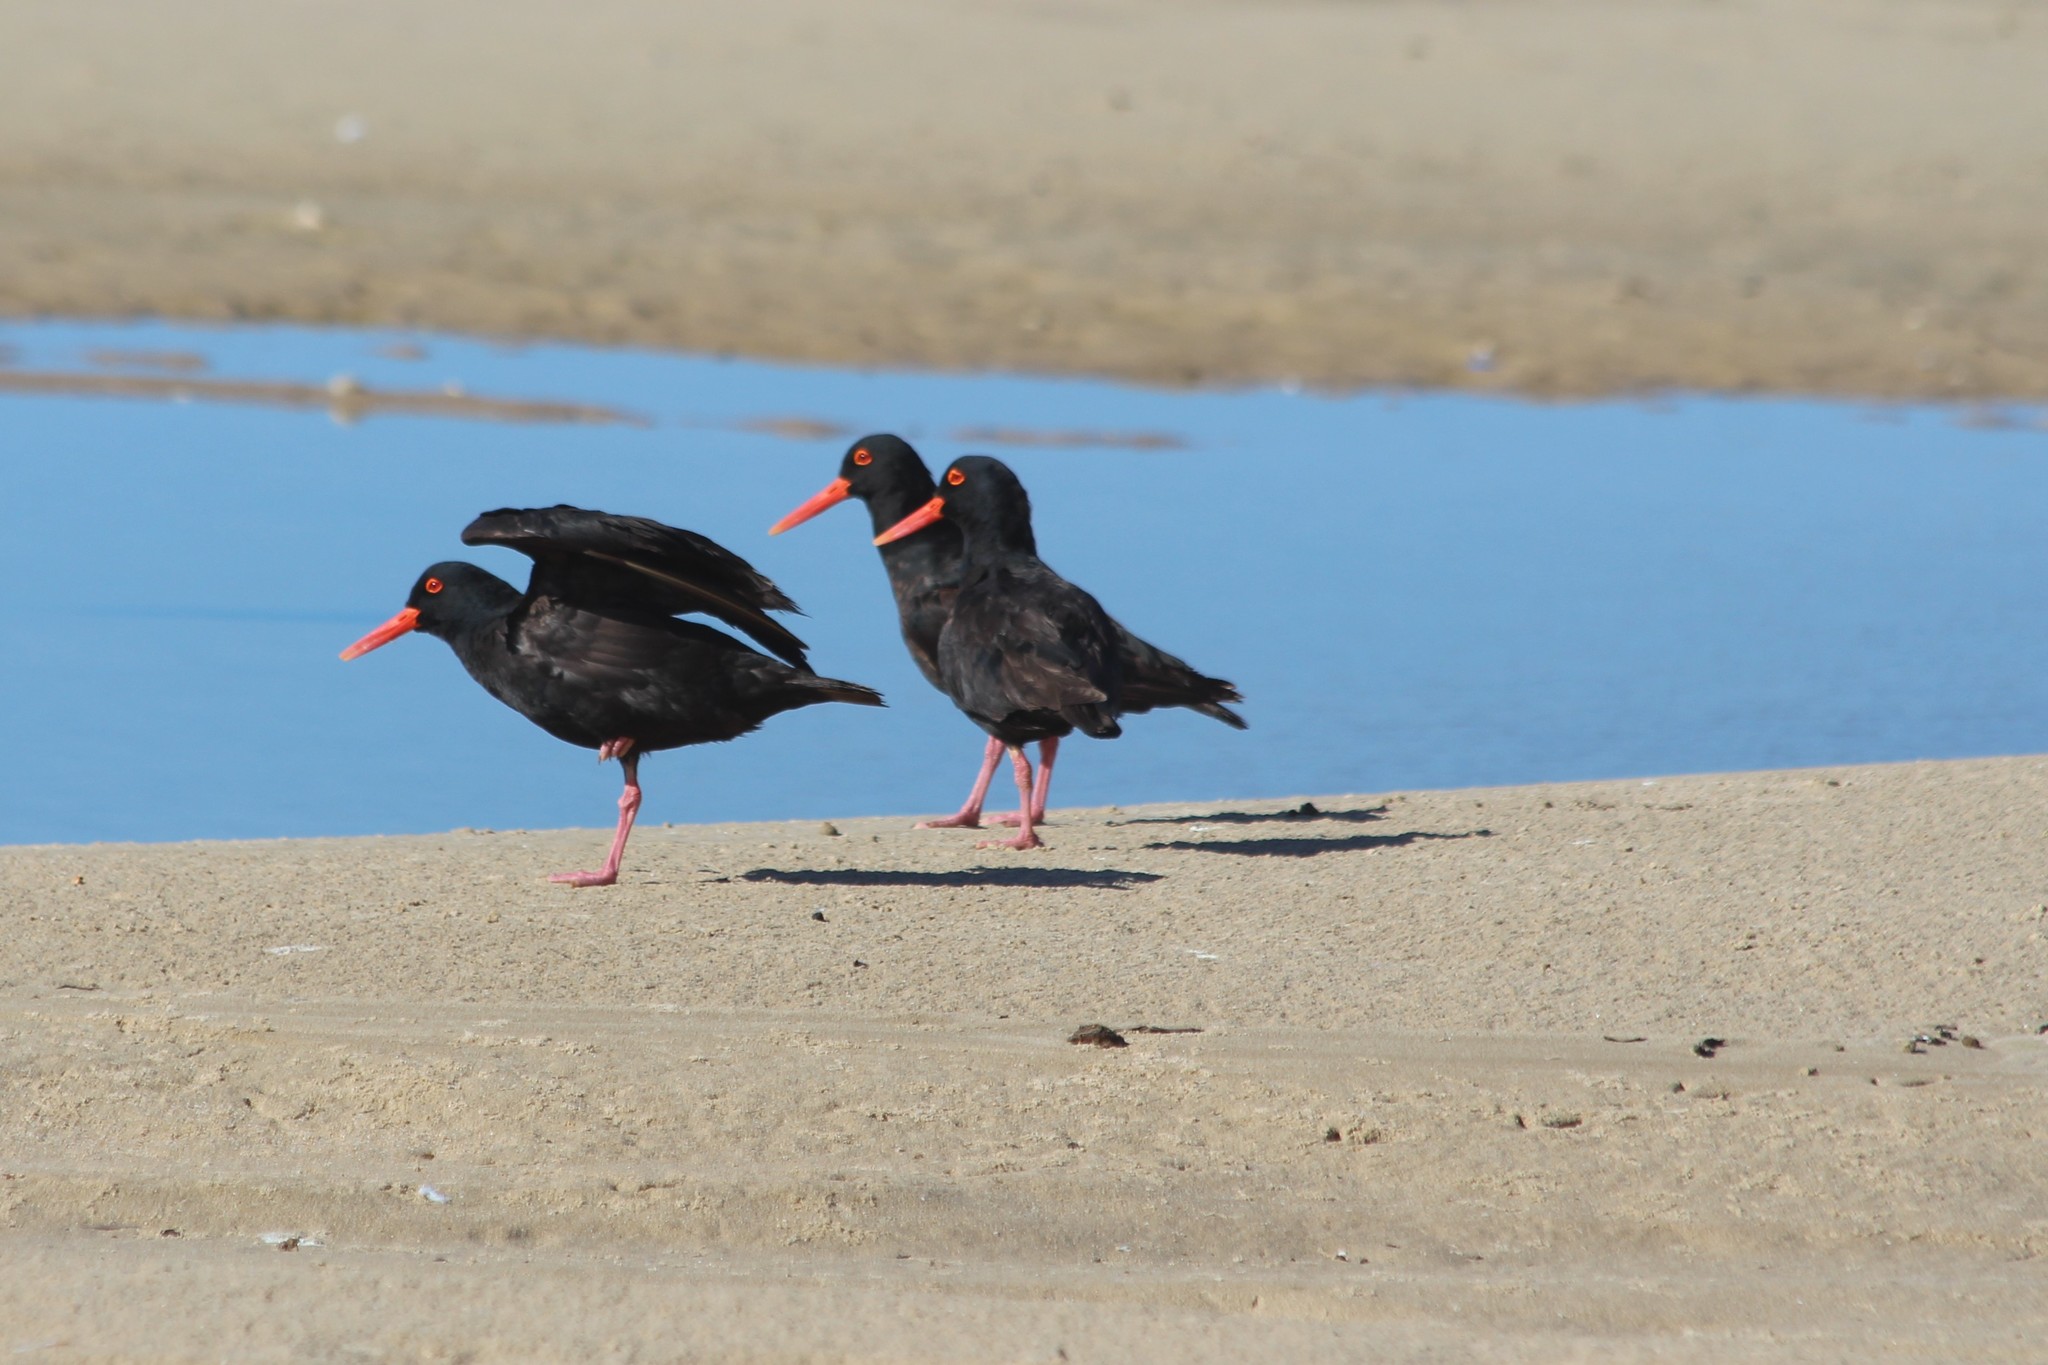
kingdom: Animalia
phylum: Chordata
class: Aves
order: Charadriiformes
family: Haematopodidae
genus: Haematopus
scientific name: Haematopus moquini
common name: African oystercatcher
